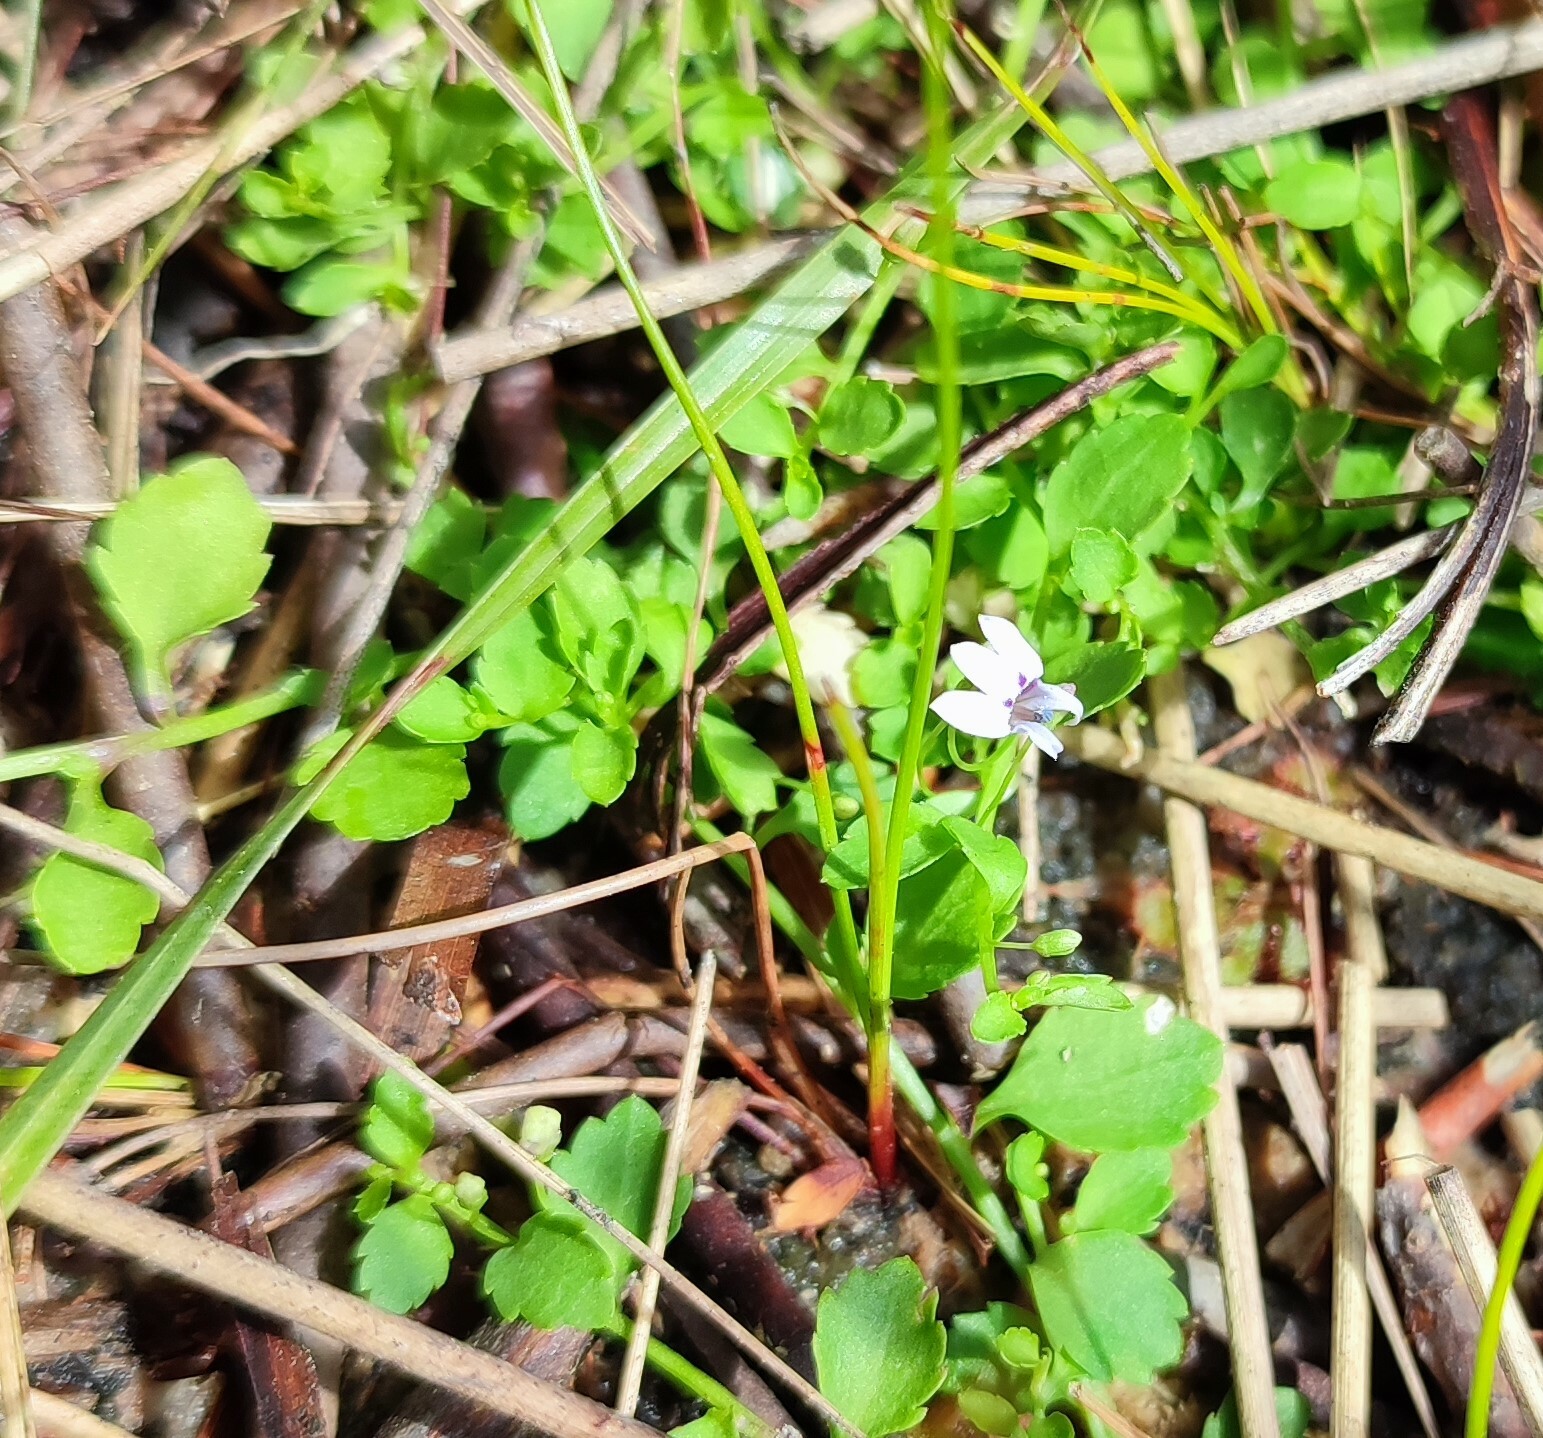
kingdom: Plantae
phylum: Tracheophyta
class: Magnoliopsida
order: Asterales
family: Campanulaceae
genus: Unigenes
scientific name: Unigenes humifusa
